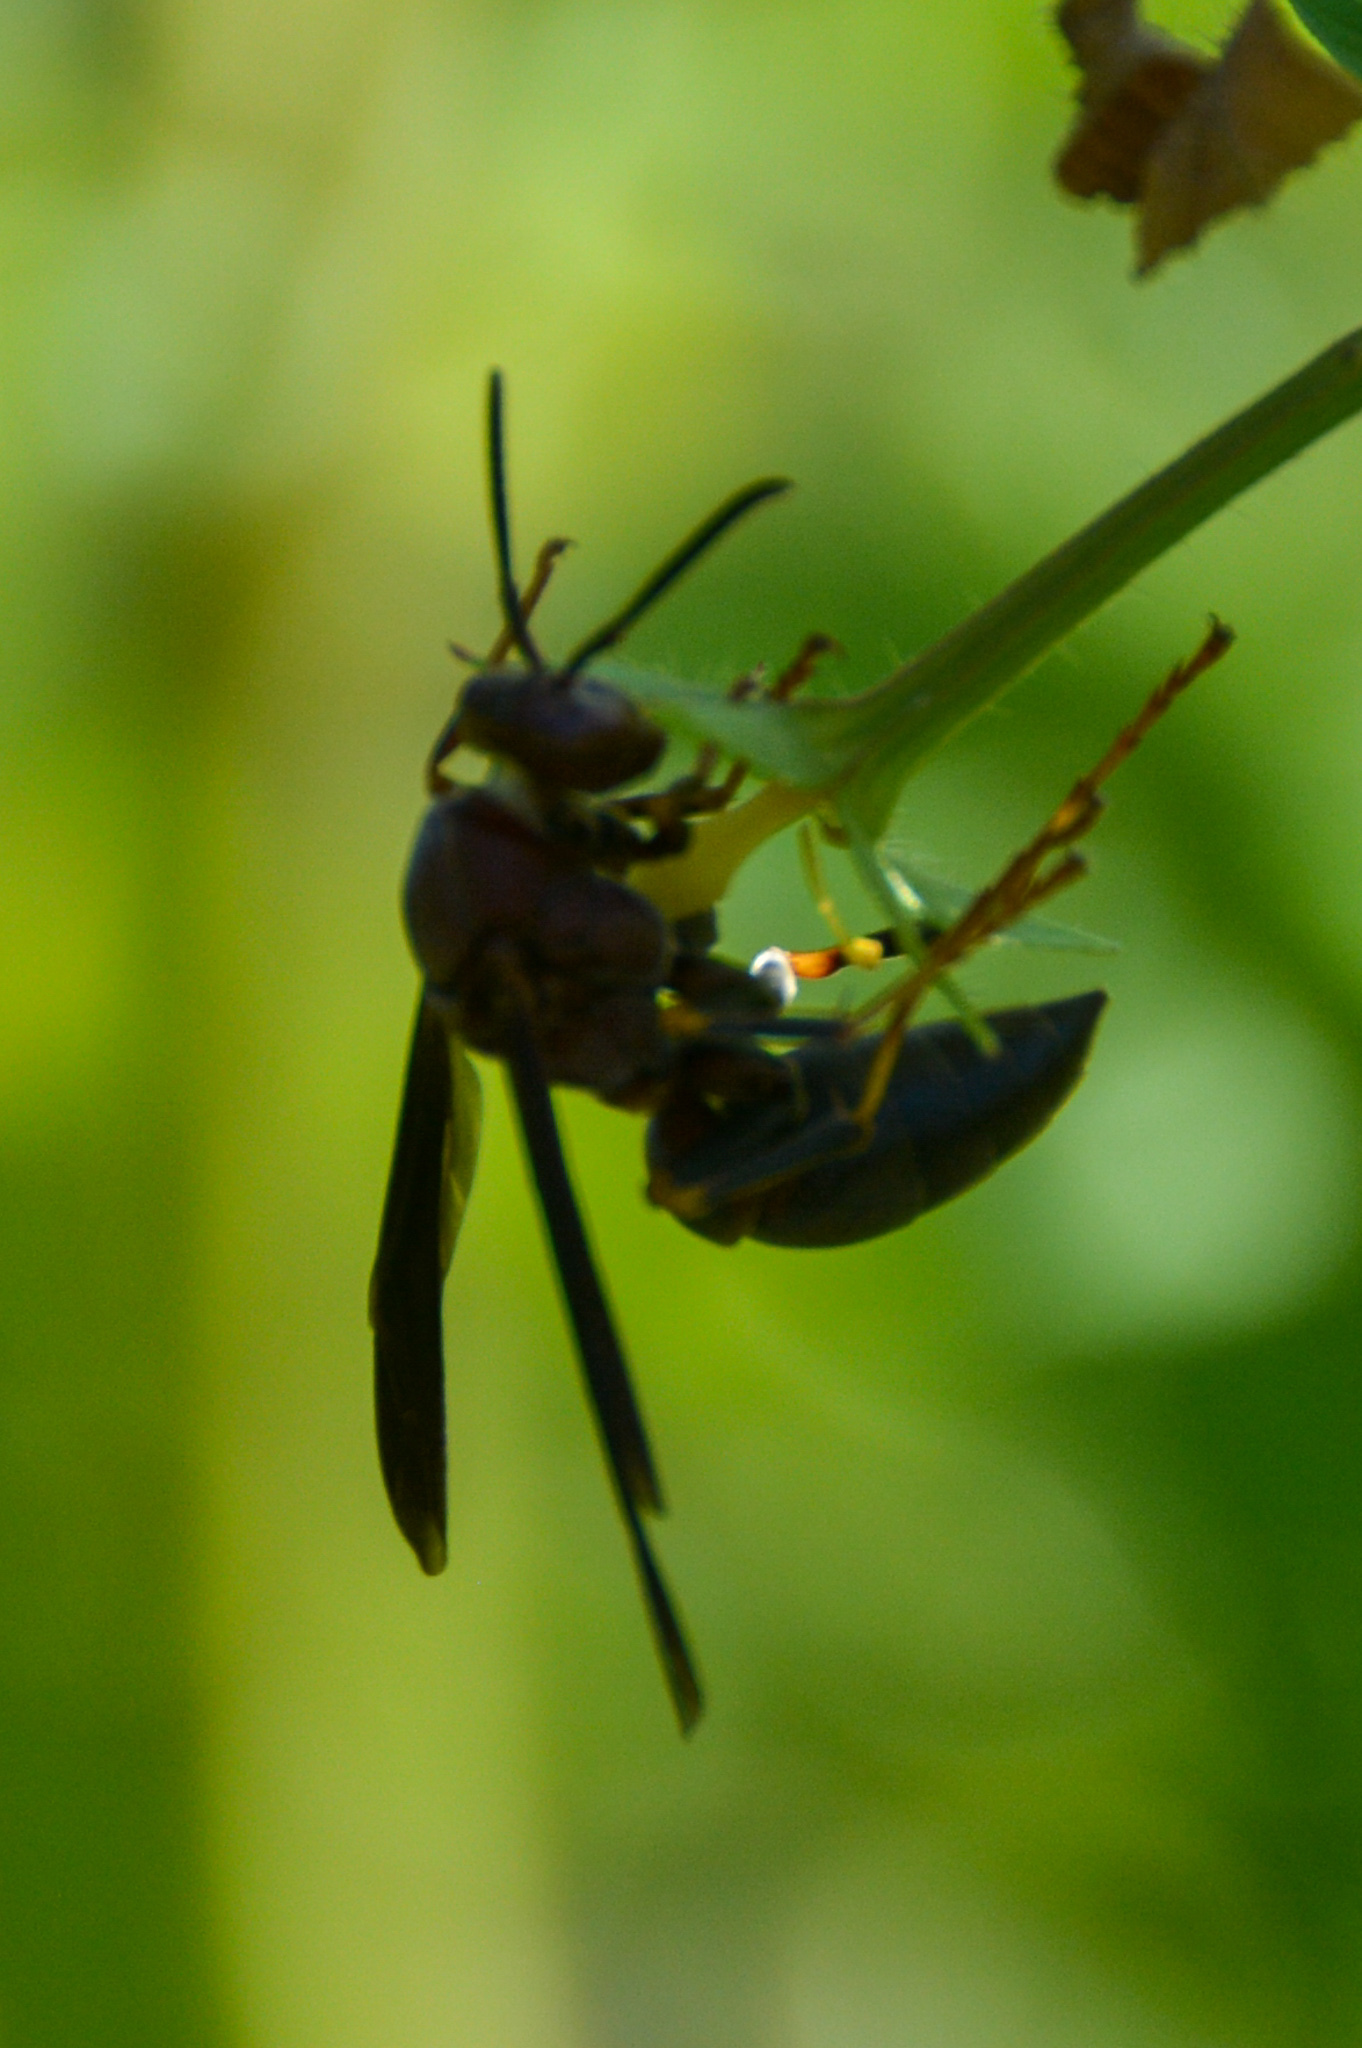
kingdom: Animalia
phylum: Arthropoda
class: Insecta
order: Hymenoptera
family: Eumenidae
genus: Polistes
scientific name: Polistes metricus
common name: Metric paper wasp
